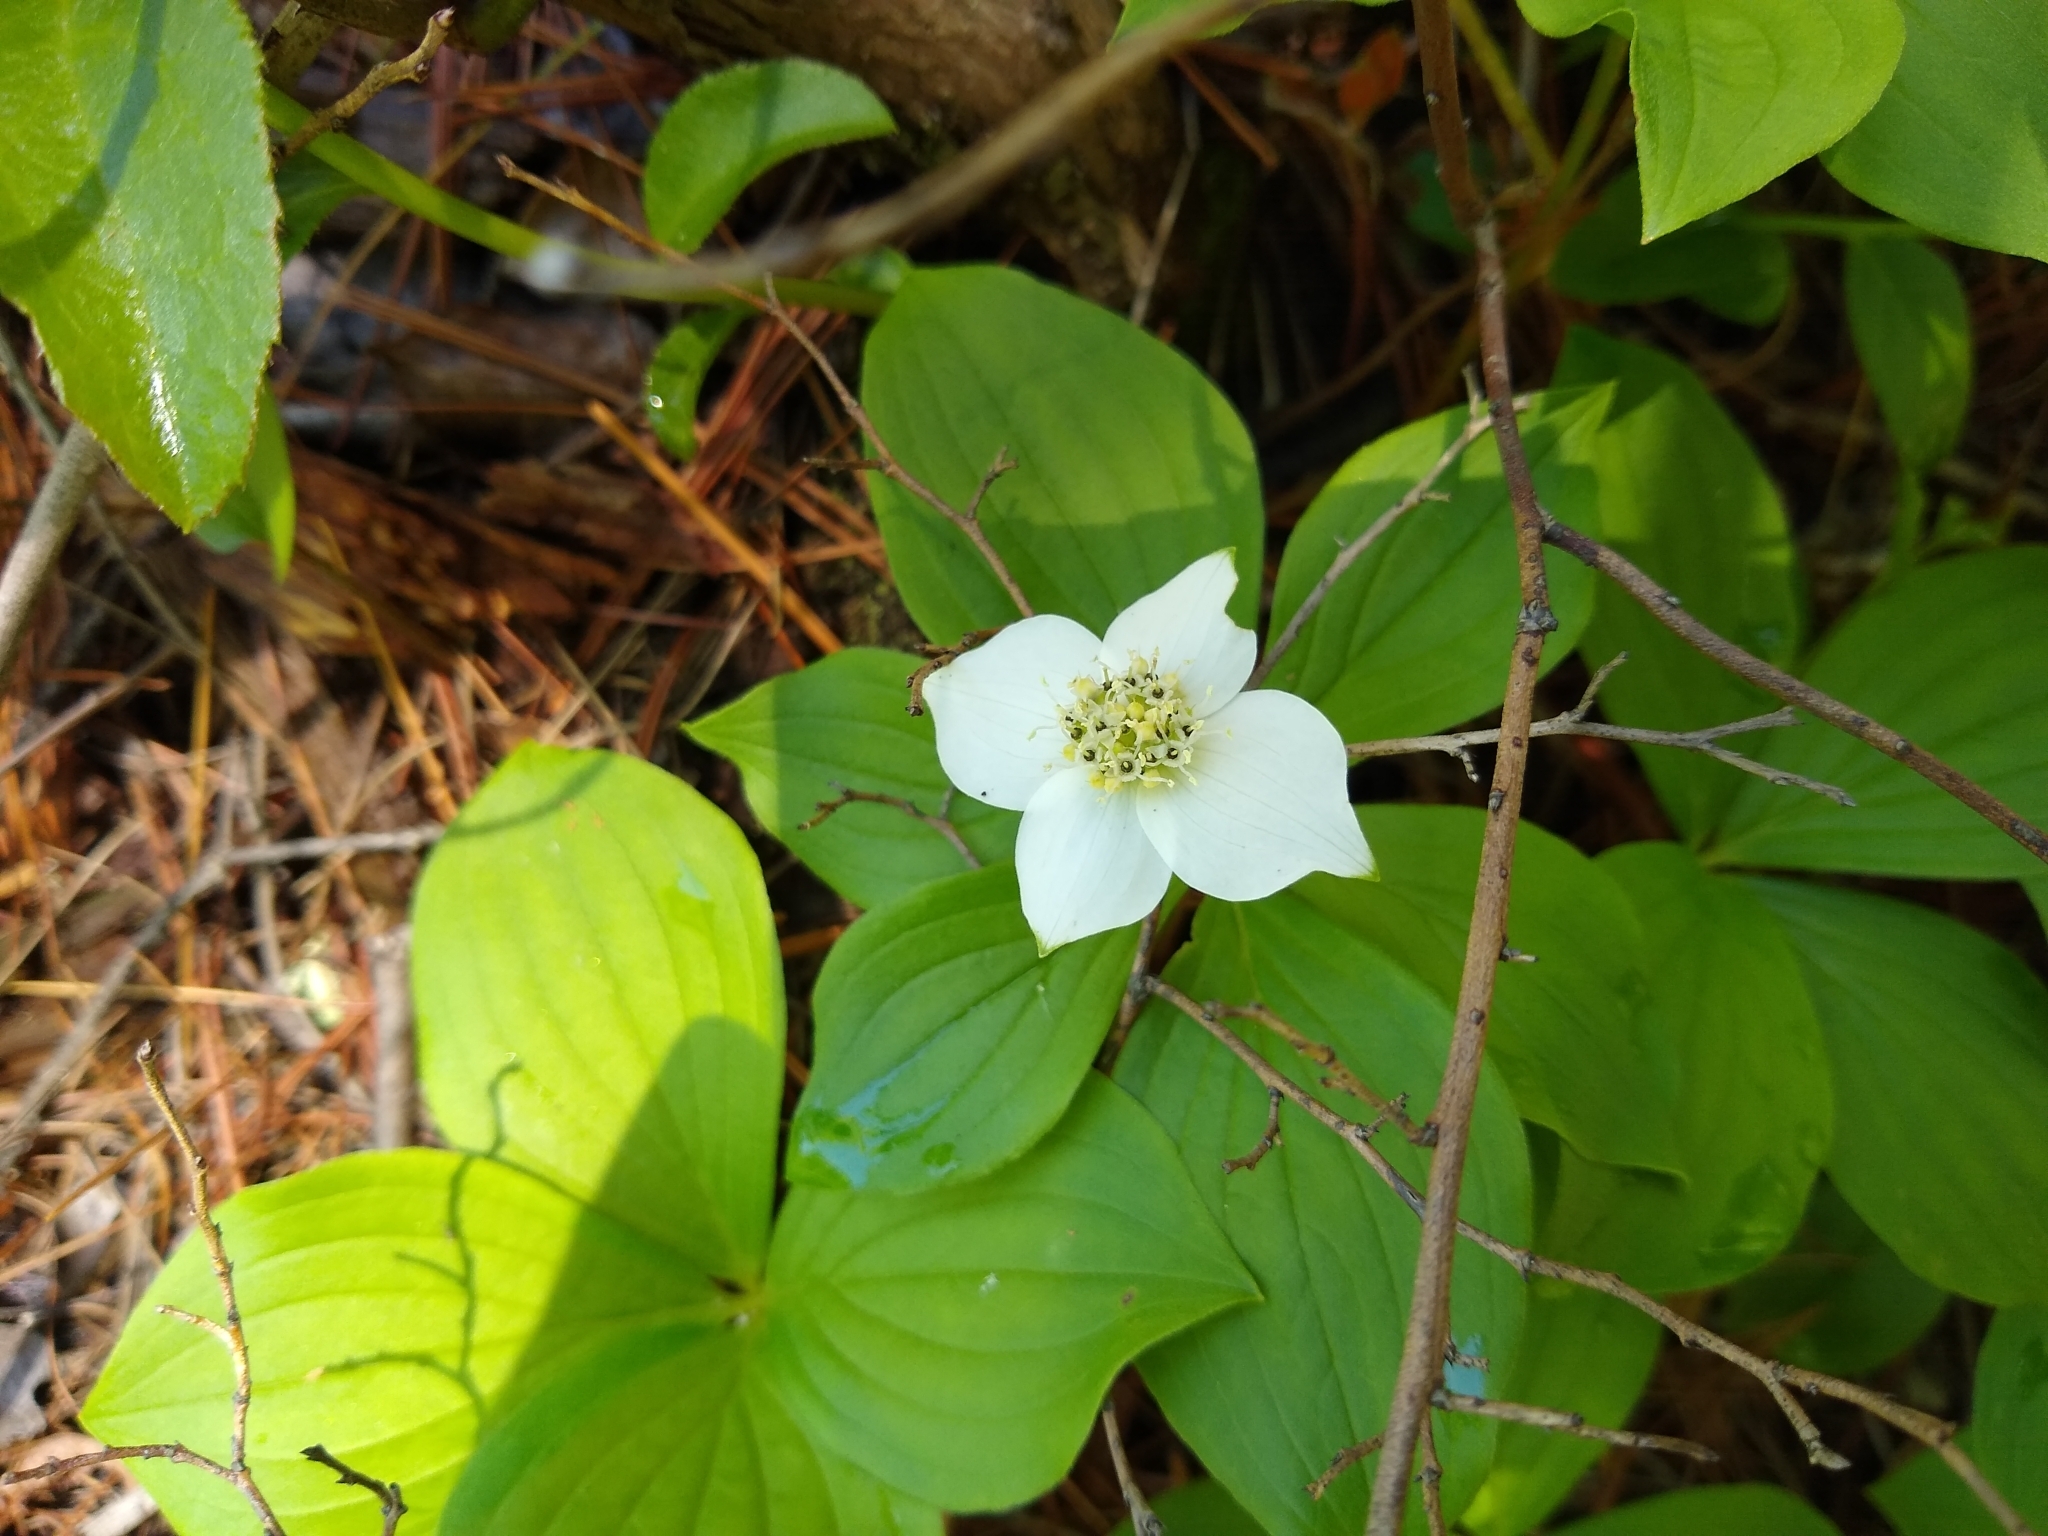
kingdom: Plantae
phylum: Tracheophyta
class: Magnoliopsida
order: Cornales
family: Cornaceae
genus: Cornus
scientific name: Cornus canadensis
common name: Creeping dogwood
